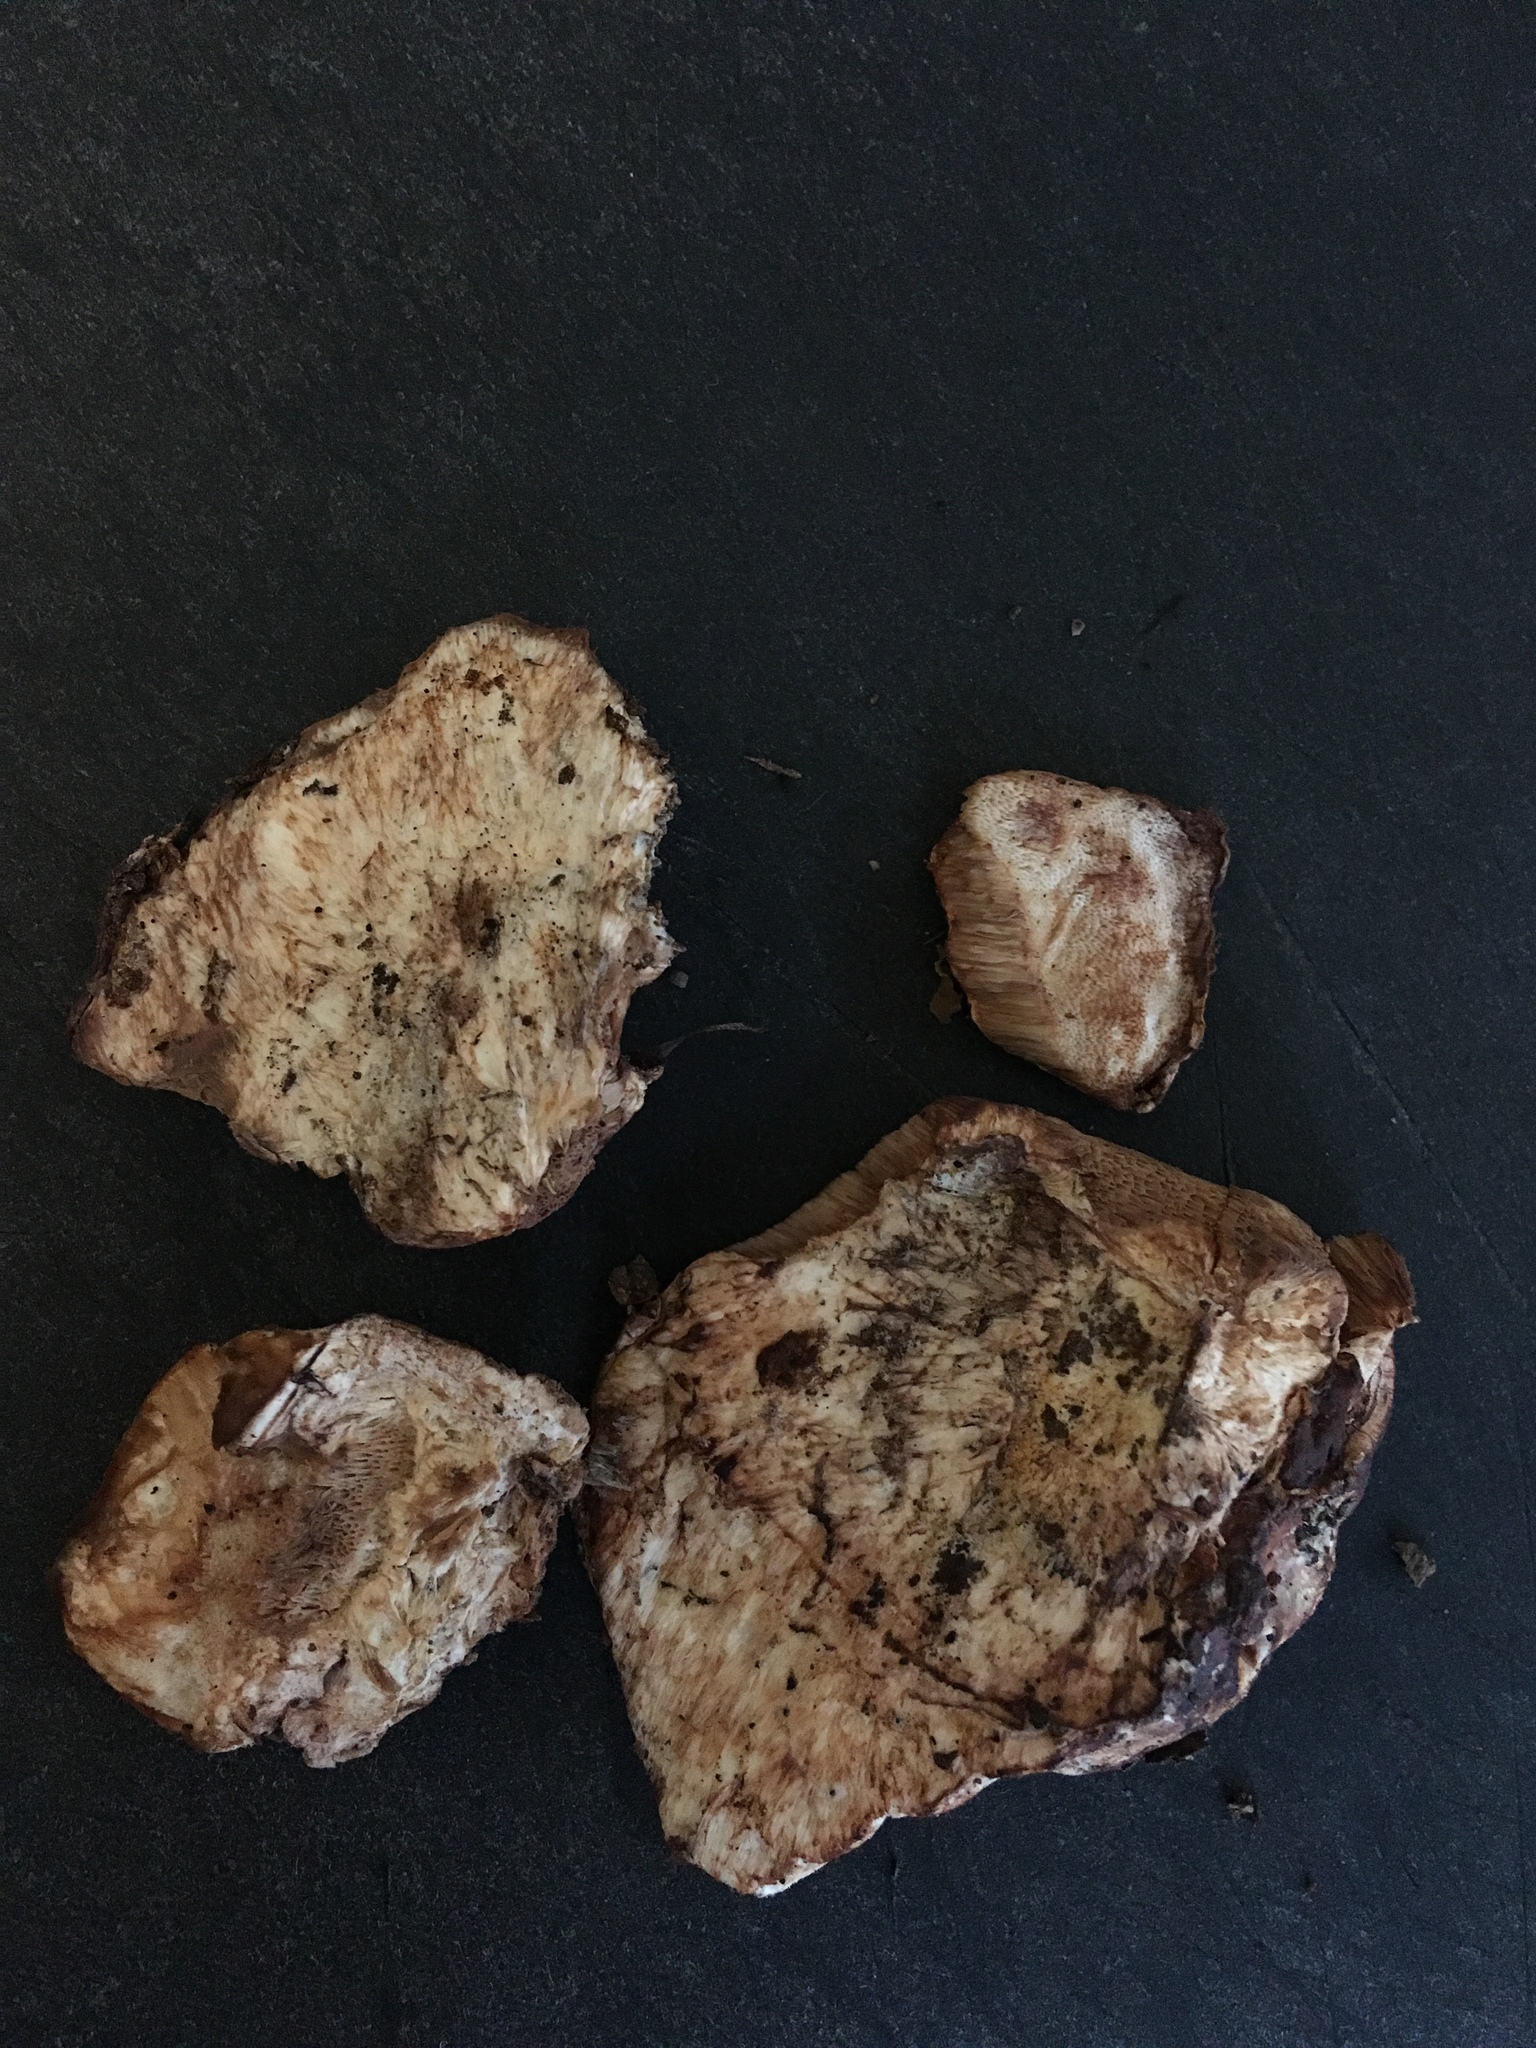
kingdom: Fungi
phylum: Basidiomycota
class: Agaricomycetes
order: Polyporales
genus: Fuscopostia
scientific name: Fuscopostia fragilis
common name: Brown-staining cheese polypore
